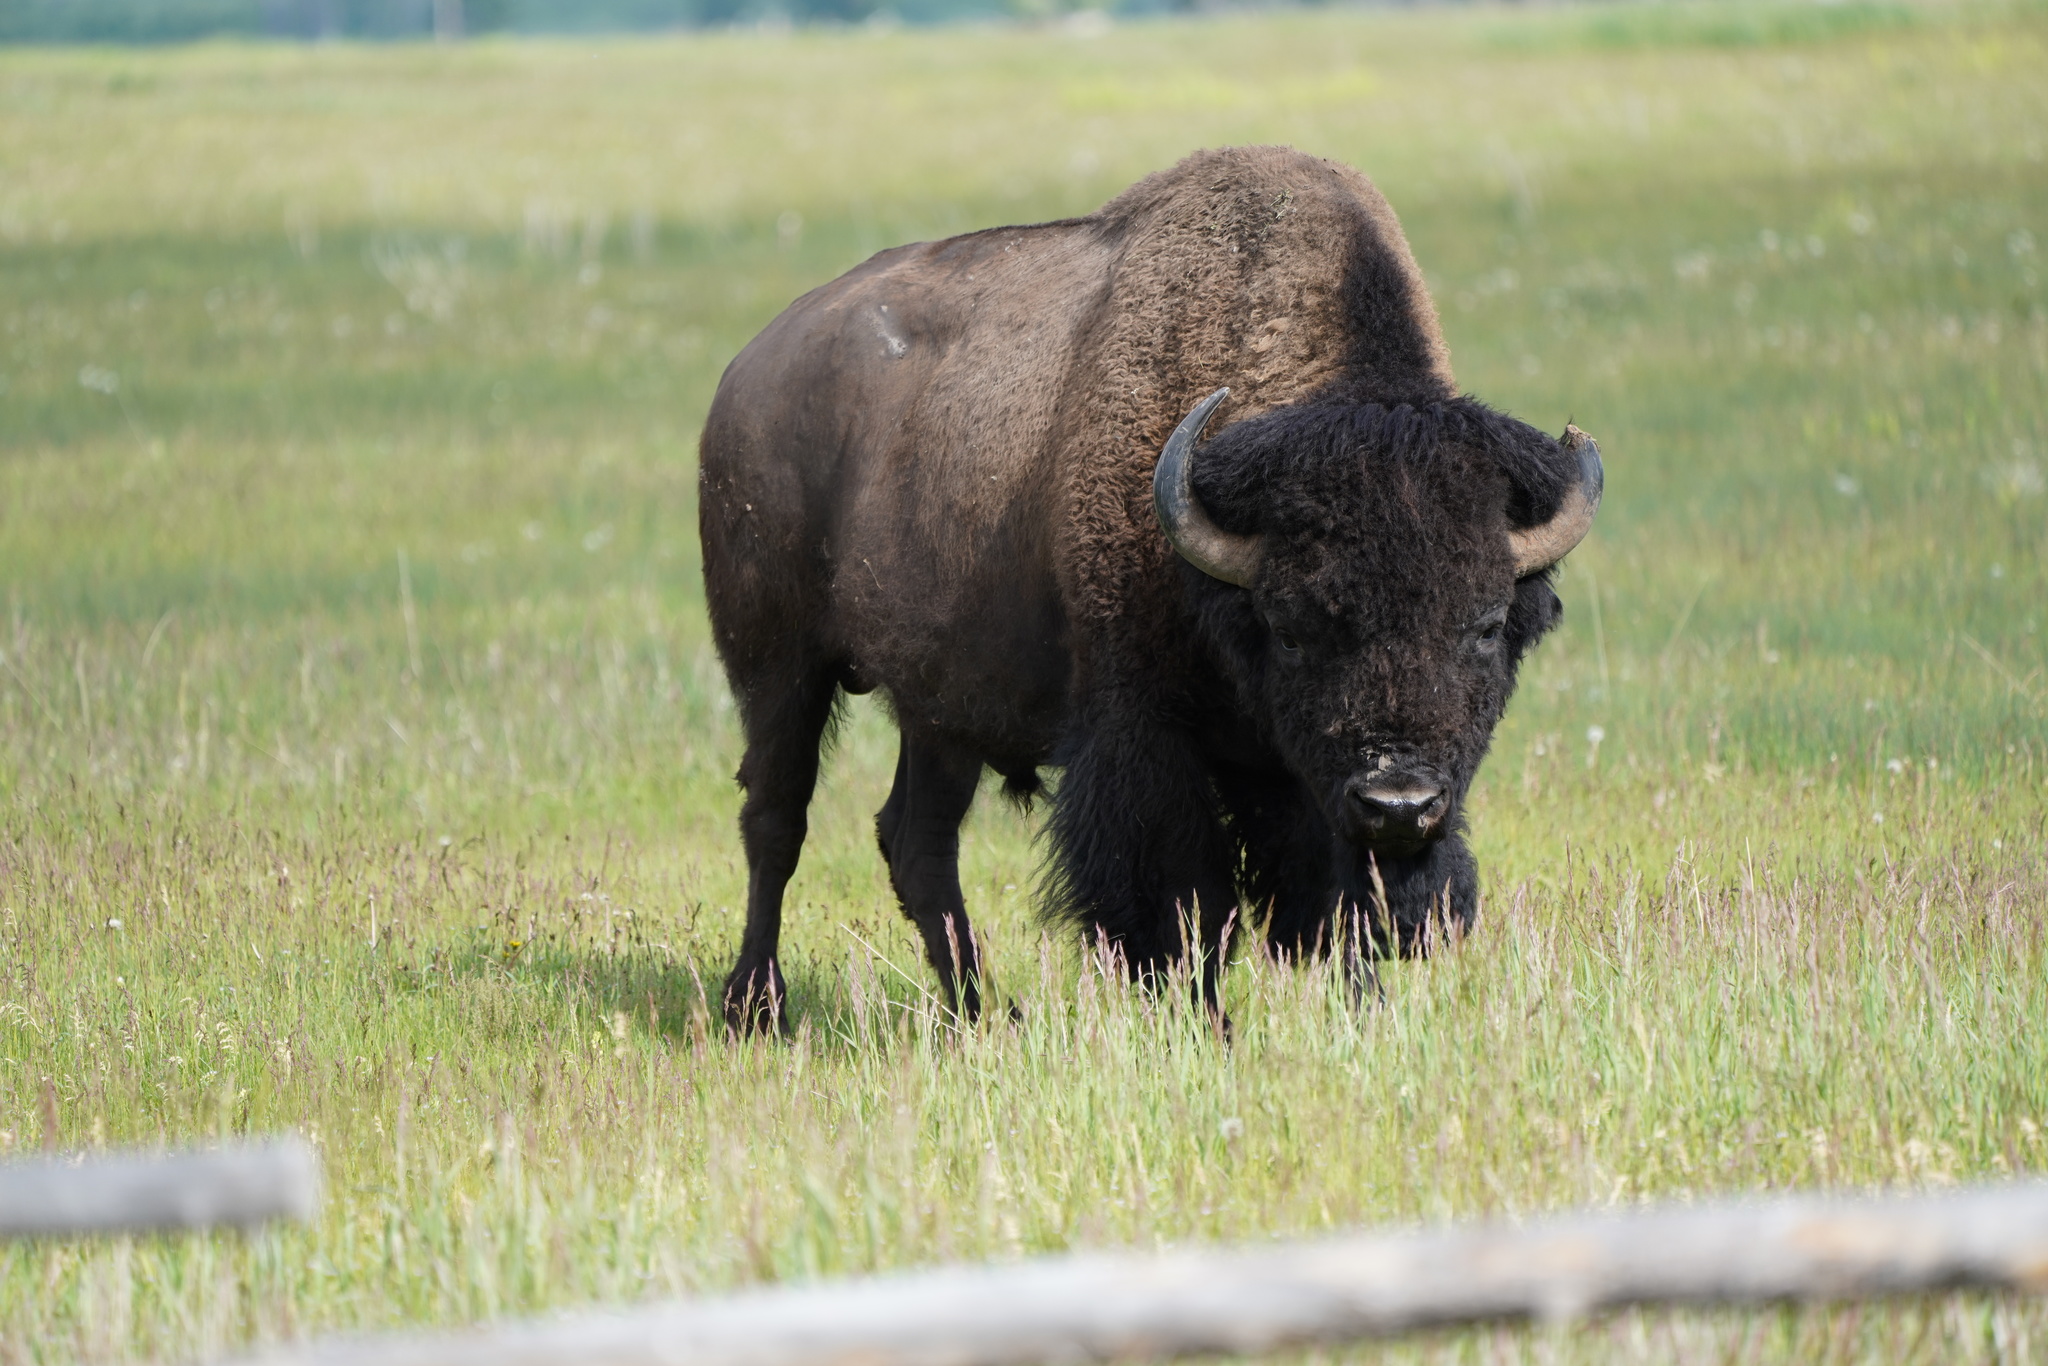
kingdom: Animalia
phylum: Chordata
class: Mammalia
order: Artiodactyla
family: Bovidae
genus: Bison
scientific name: Bison bison
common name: American bison
